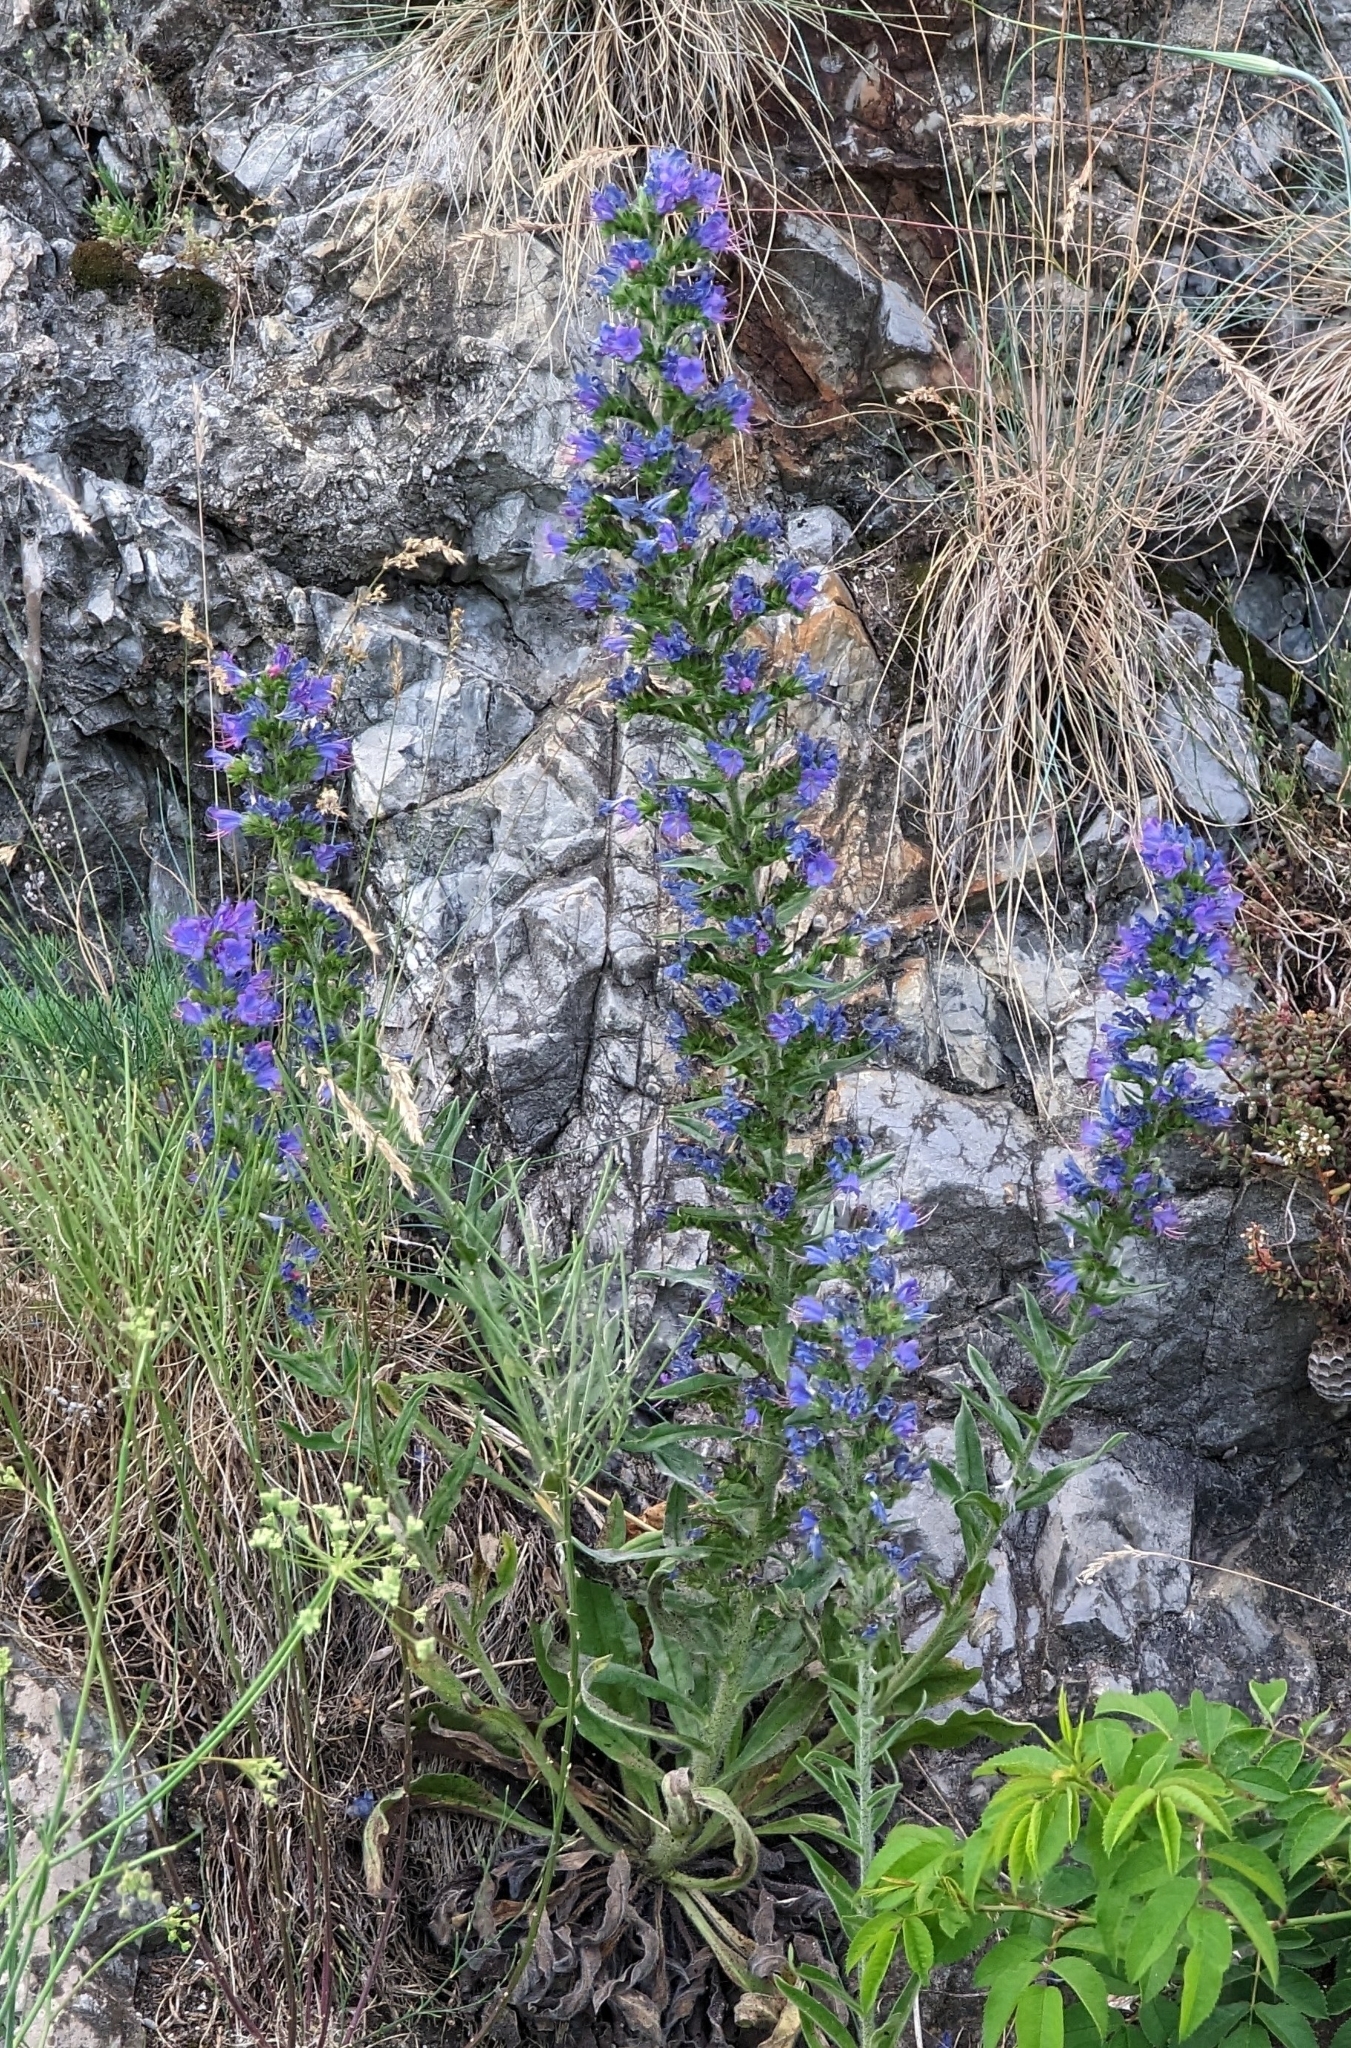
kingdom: Plantae
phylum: Tracheophyta
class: Magnoliopsida
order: Boraginales
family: Boraginaceae
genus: Echium
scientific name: Echium vulgare
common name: Common viper's bugloss
